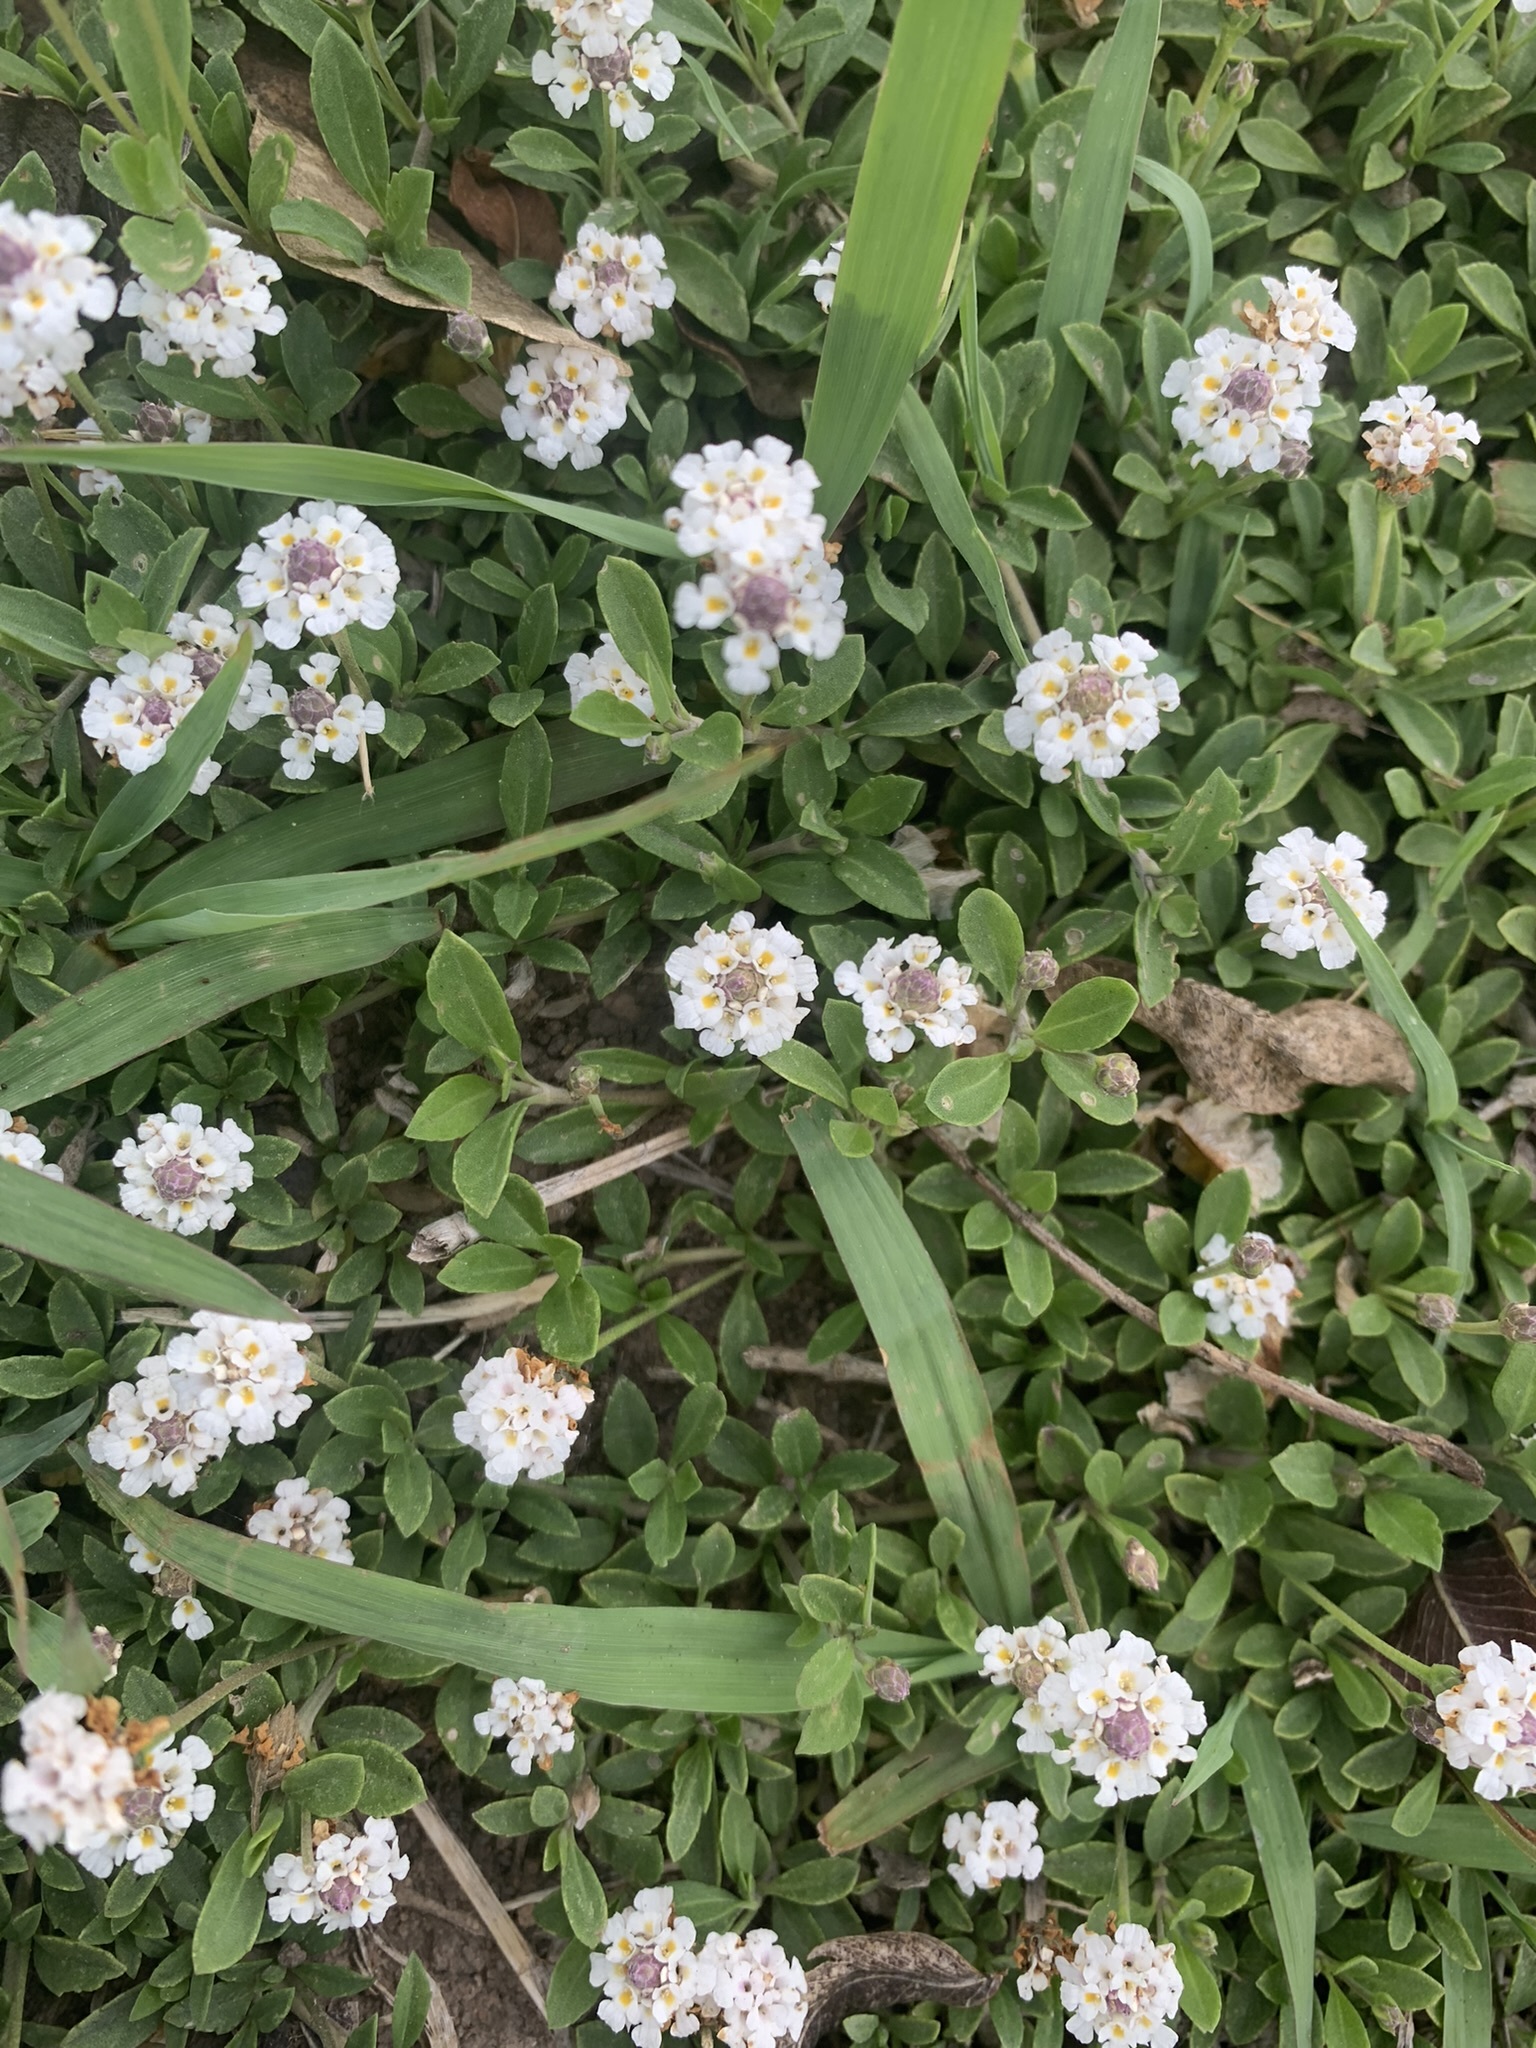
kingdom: Plantae
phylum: Tracheophyta
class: Magnoliopsida
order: Lamiales
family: Verbenaceae
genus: Phyla
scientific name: Phyla nodiflora
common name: Frogfruit
